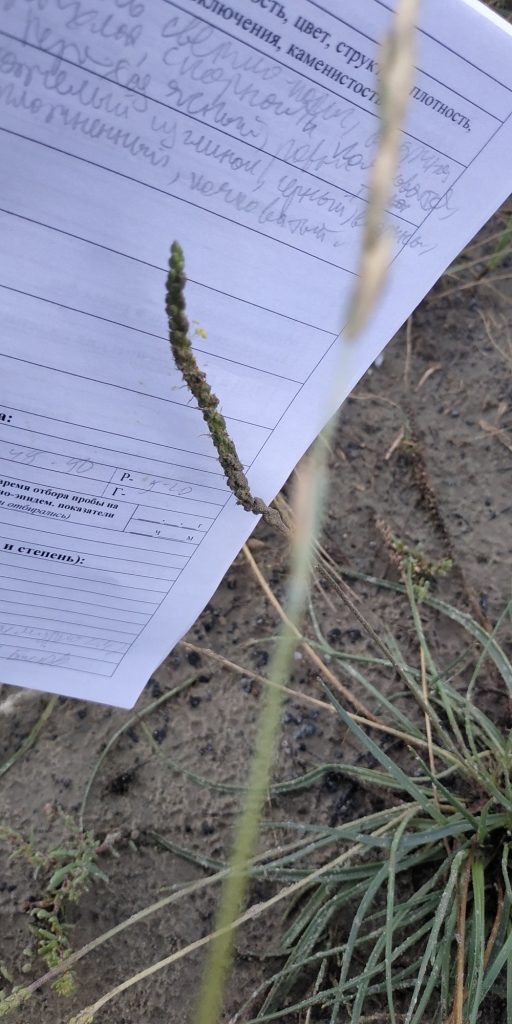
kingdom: Plantae
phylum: Tracheophyta
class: Magnoliopsida
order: Lamiales
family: Plantaginaceae
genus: Plantago
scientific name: Plantago salsa
